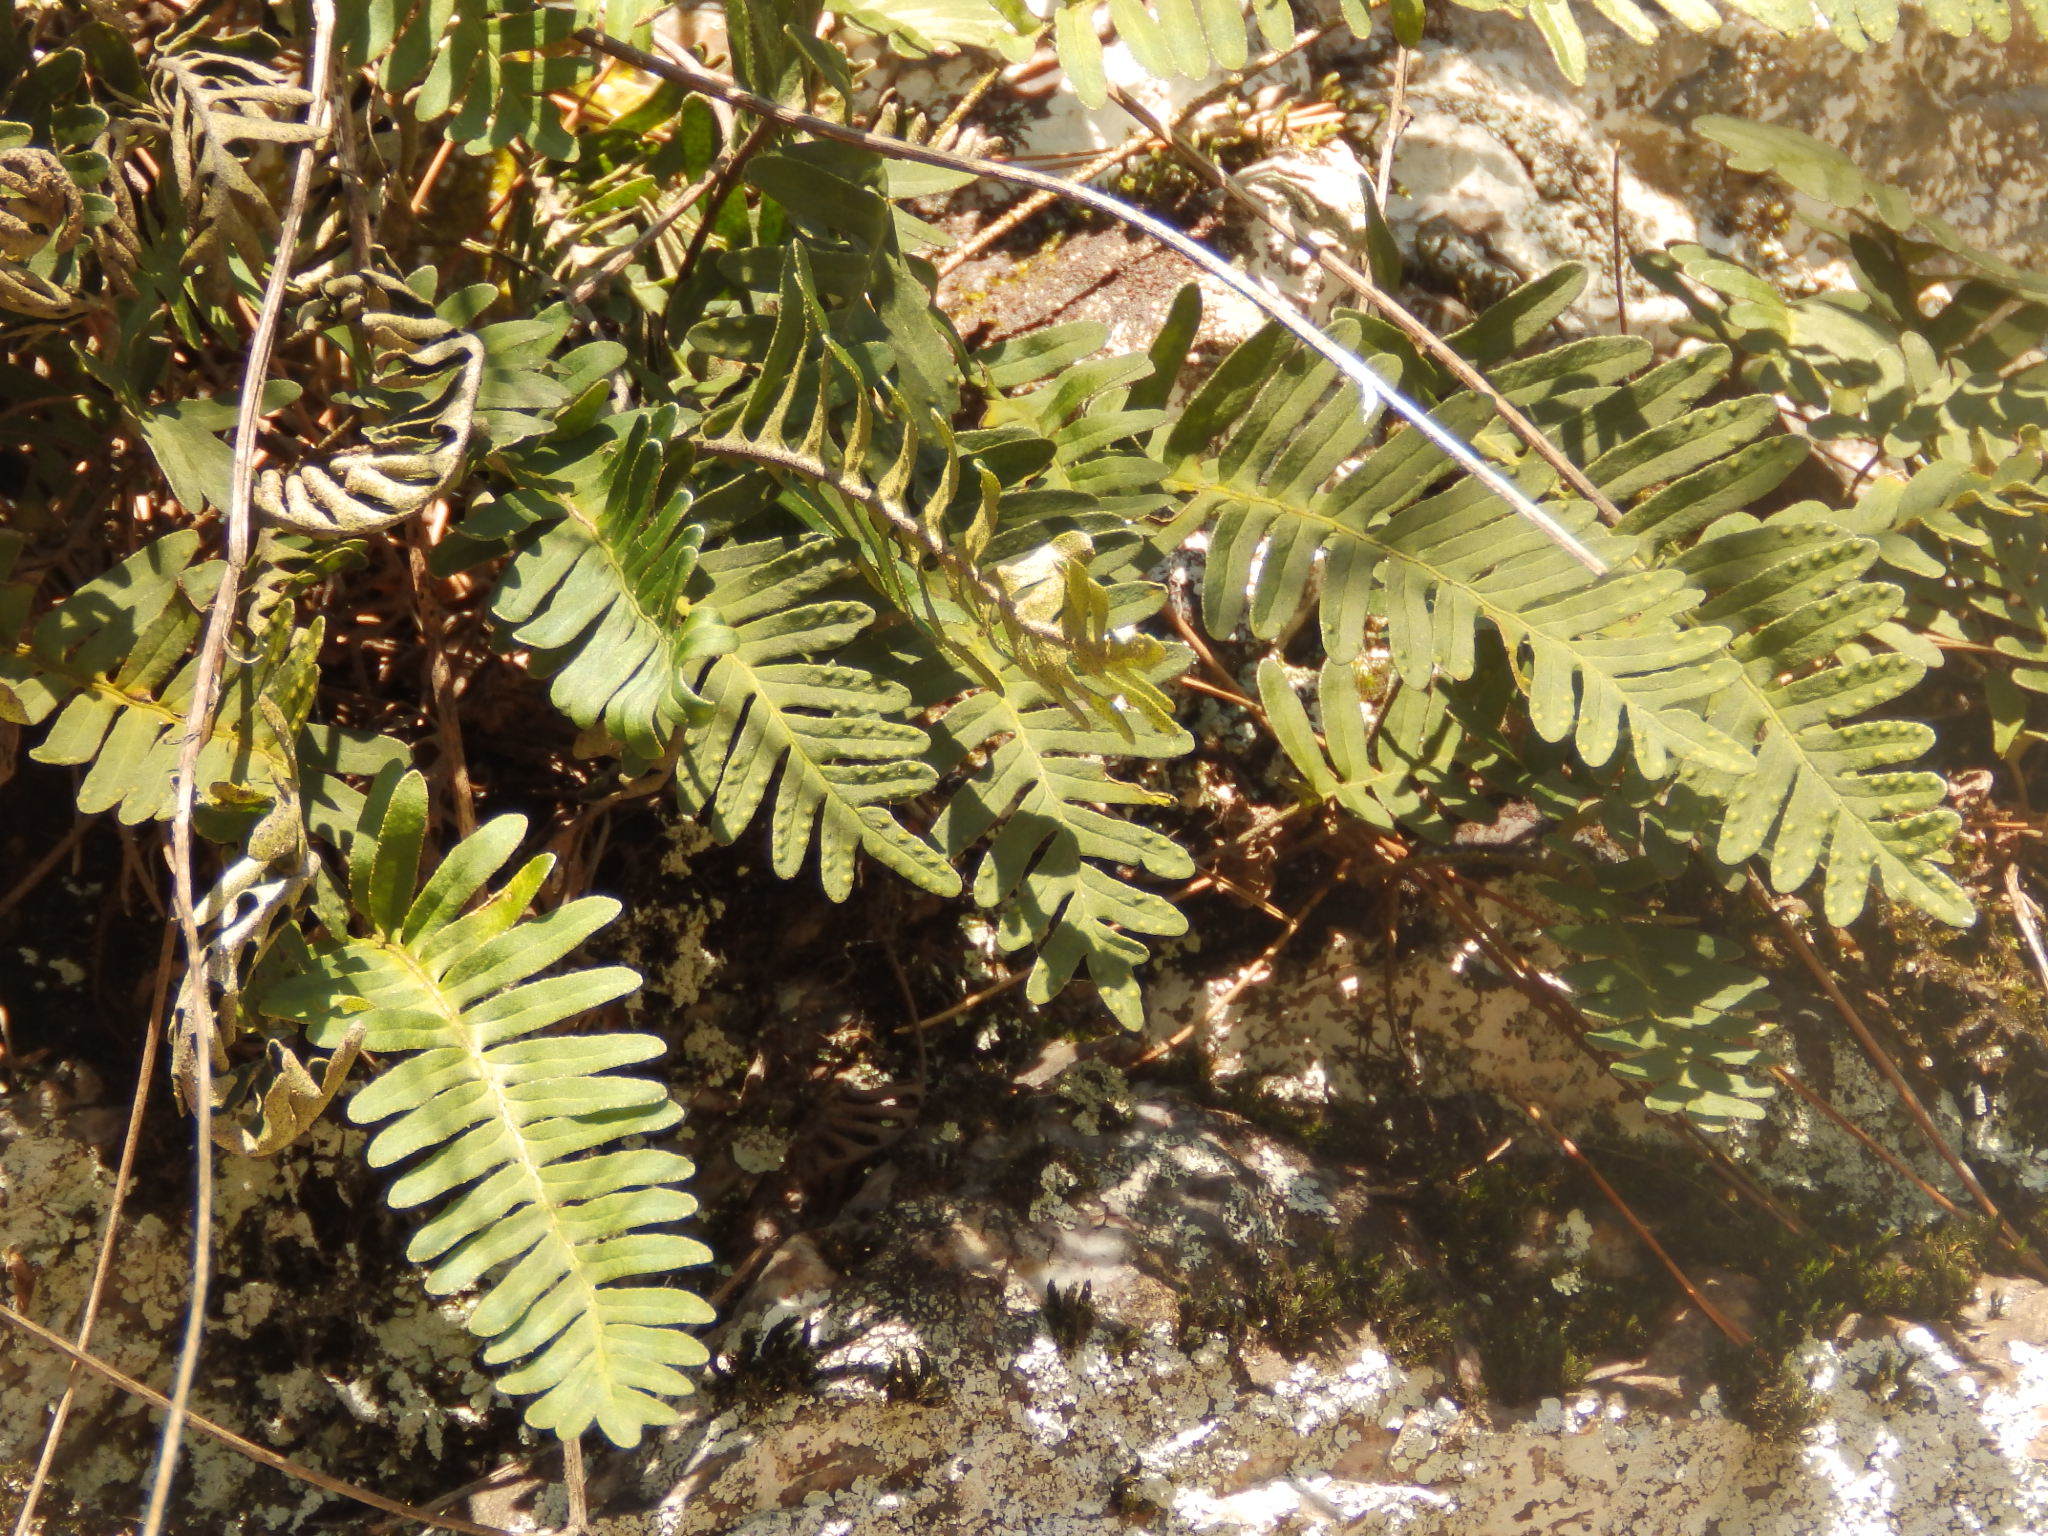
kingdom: Plantae
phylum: Tracheophyta
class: Polypodiopsida
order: Polypodiales
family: Polypodiaceae
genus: Pleopeltis
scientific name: Pleopeltis michauxiana
